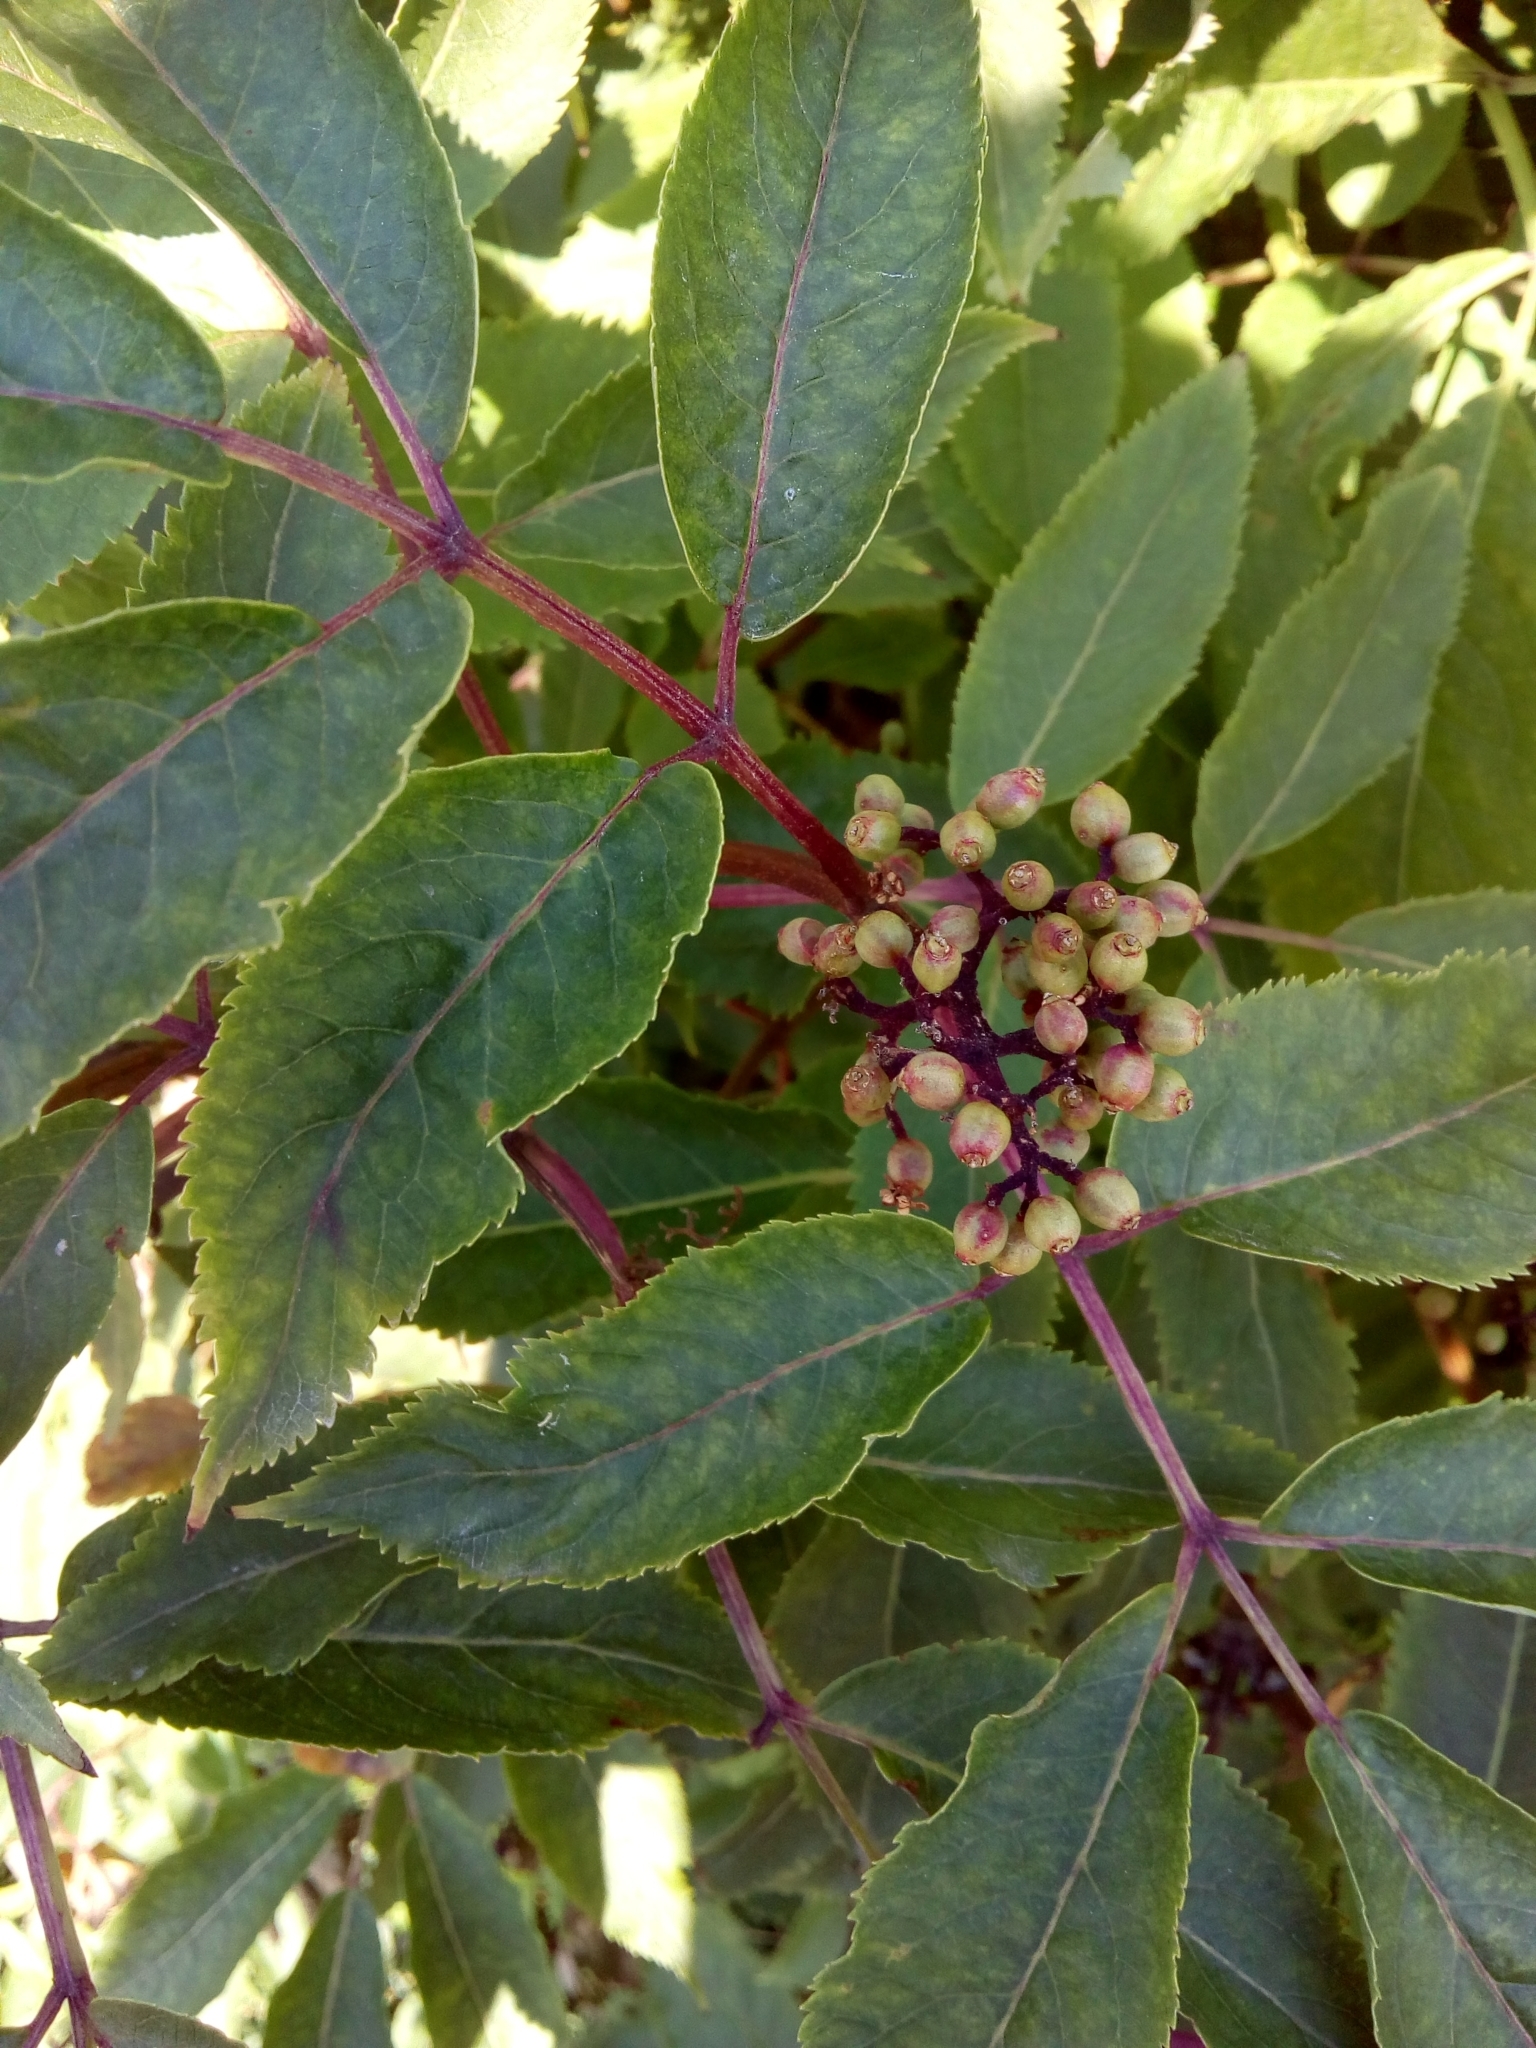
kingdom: Plantae
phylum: Tracheophyta
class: Magnoliopsida
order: Dipsacales
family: Viburnaceae
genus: Sambucus
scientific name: Sambucus racemosa
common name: Red-berried elder
